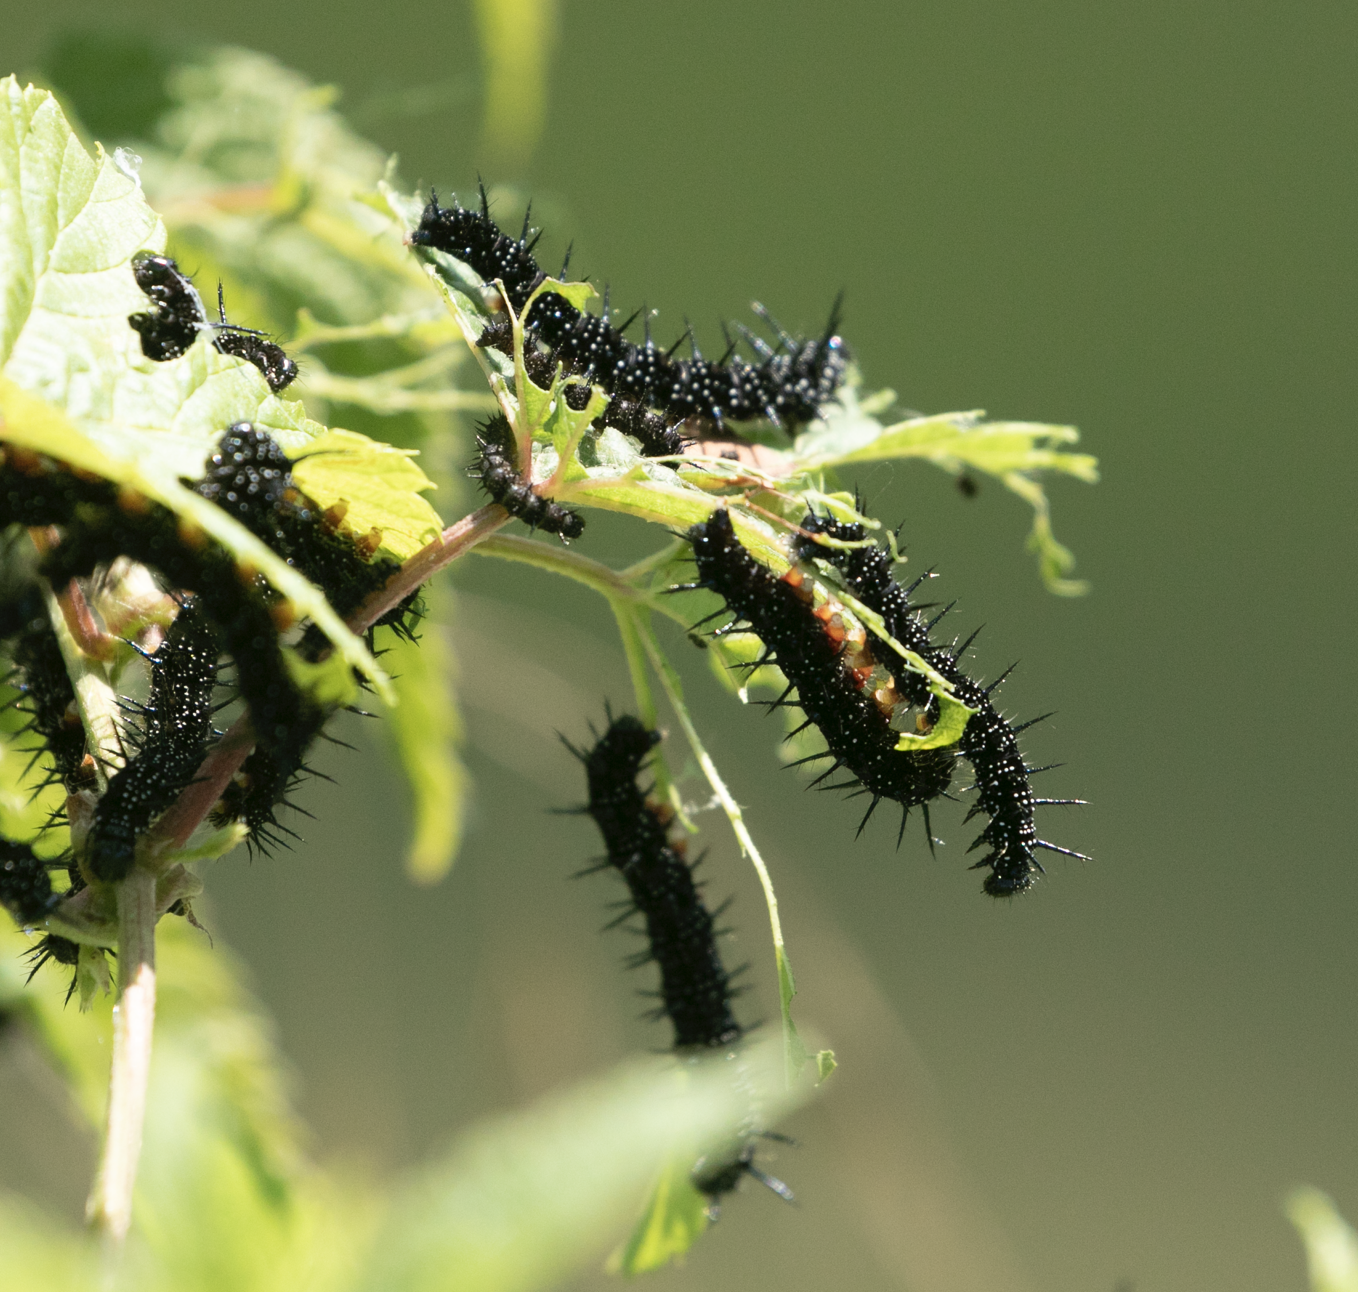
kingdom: Animalia
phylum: Arthropoda
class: Insecta
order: Lepidoptera
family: Nymphalidae
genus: Aglais
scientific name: Aglais io
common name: Peacock
